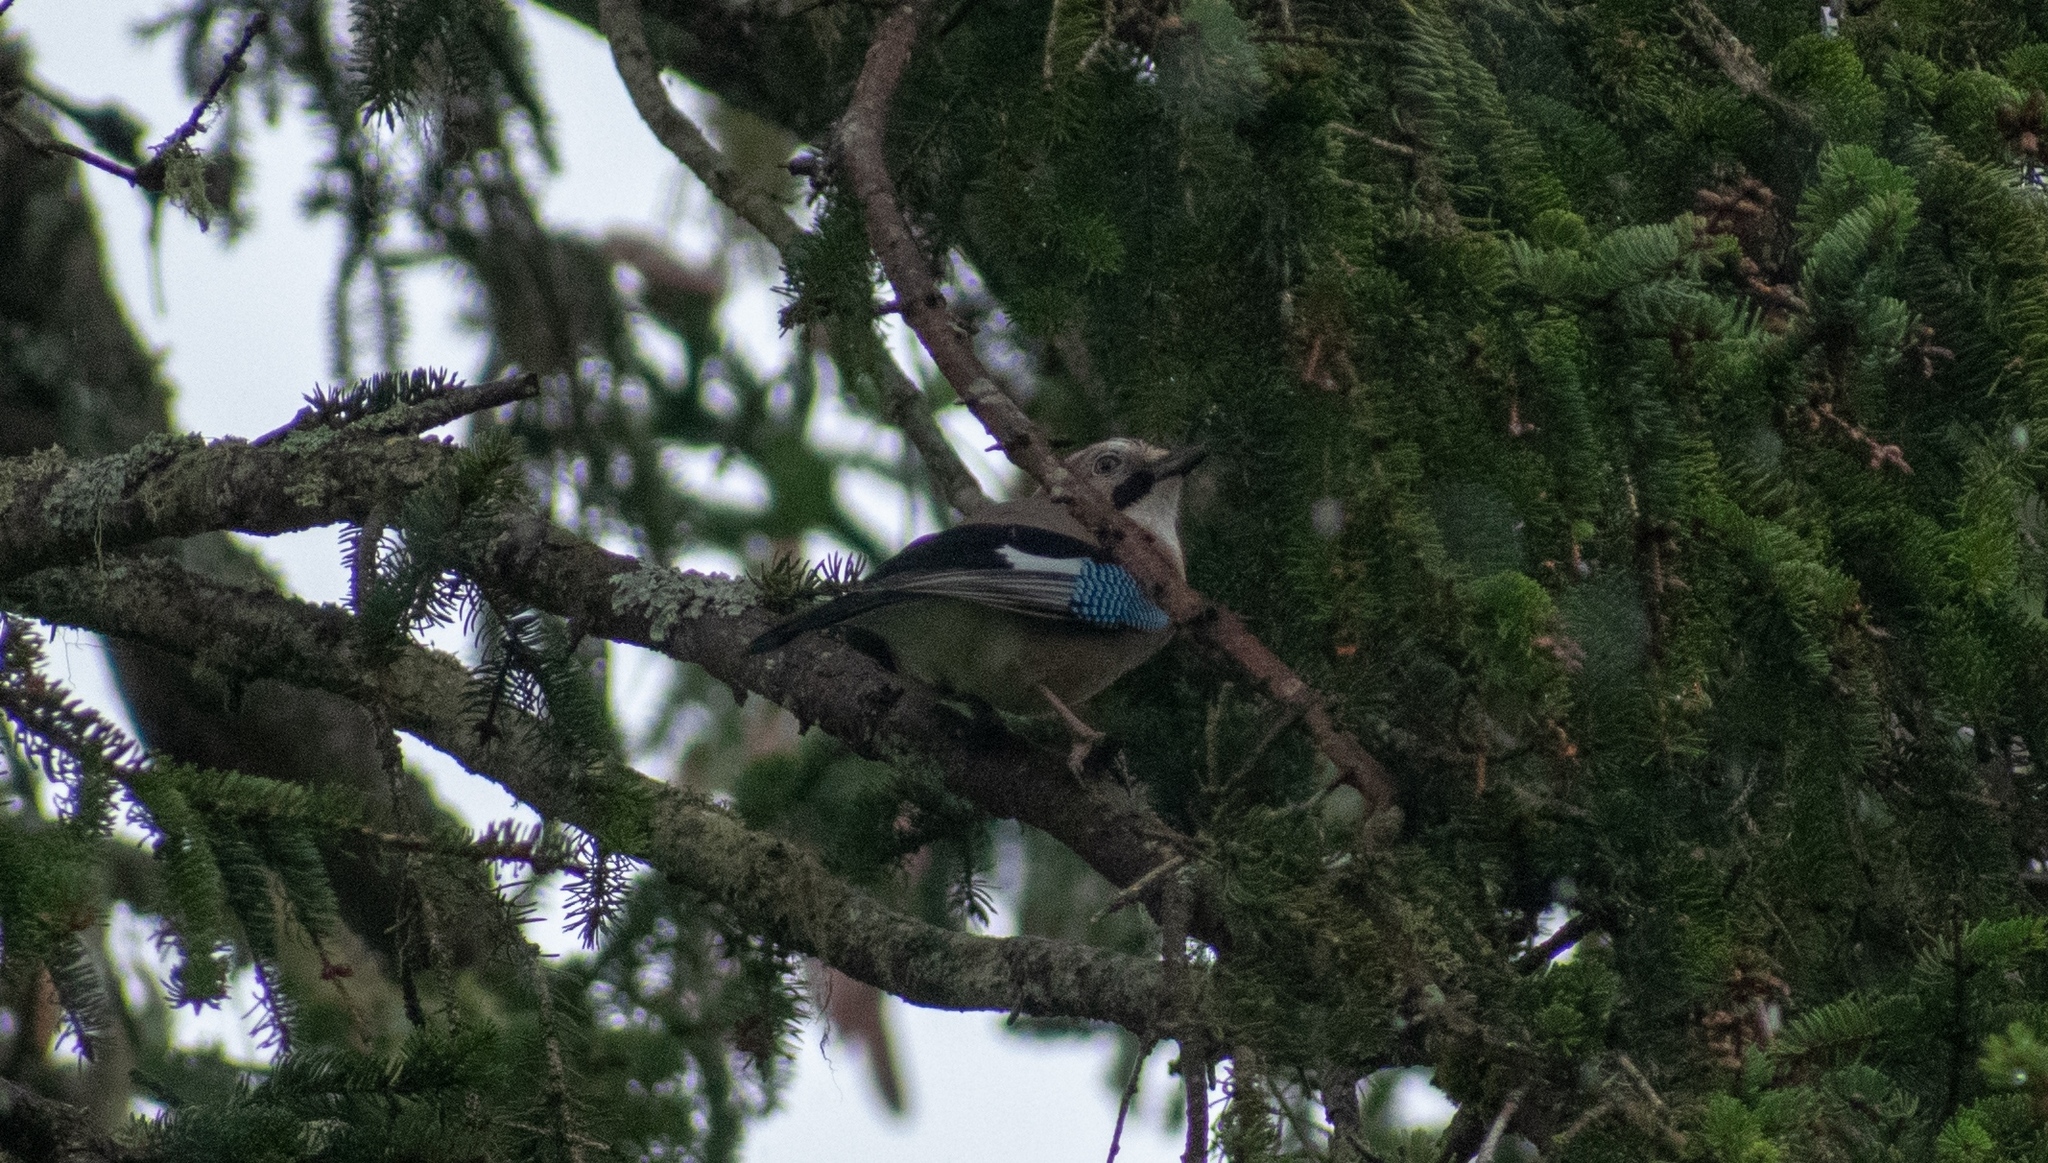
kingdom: Animalia
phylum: Chordata
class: Aves
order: Passeriformes
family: Corvidae
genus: Garrulus
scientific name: Garrulus glandarius
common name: Eurasian jay
